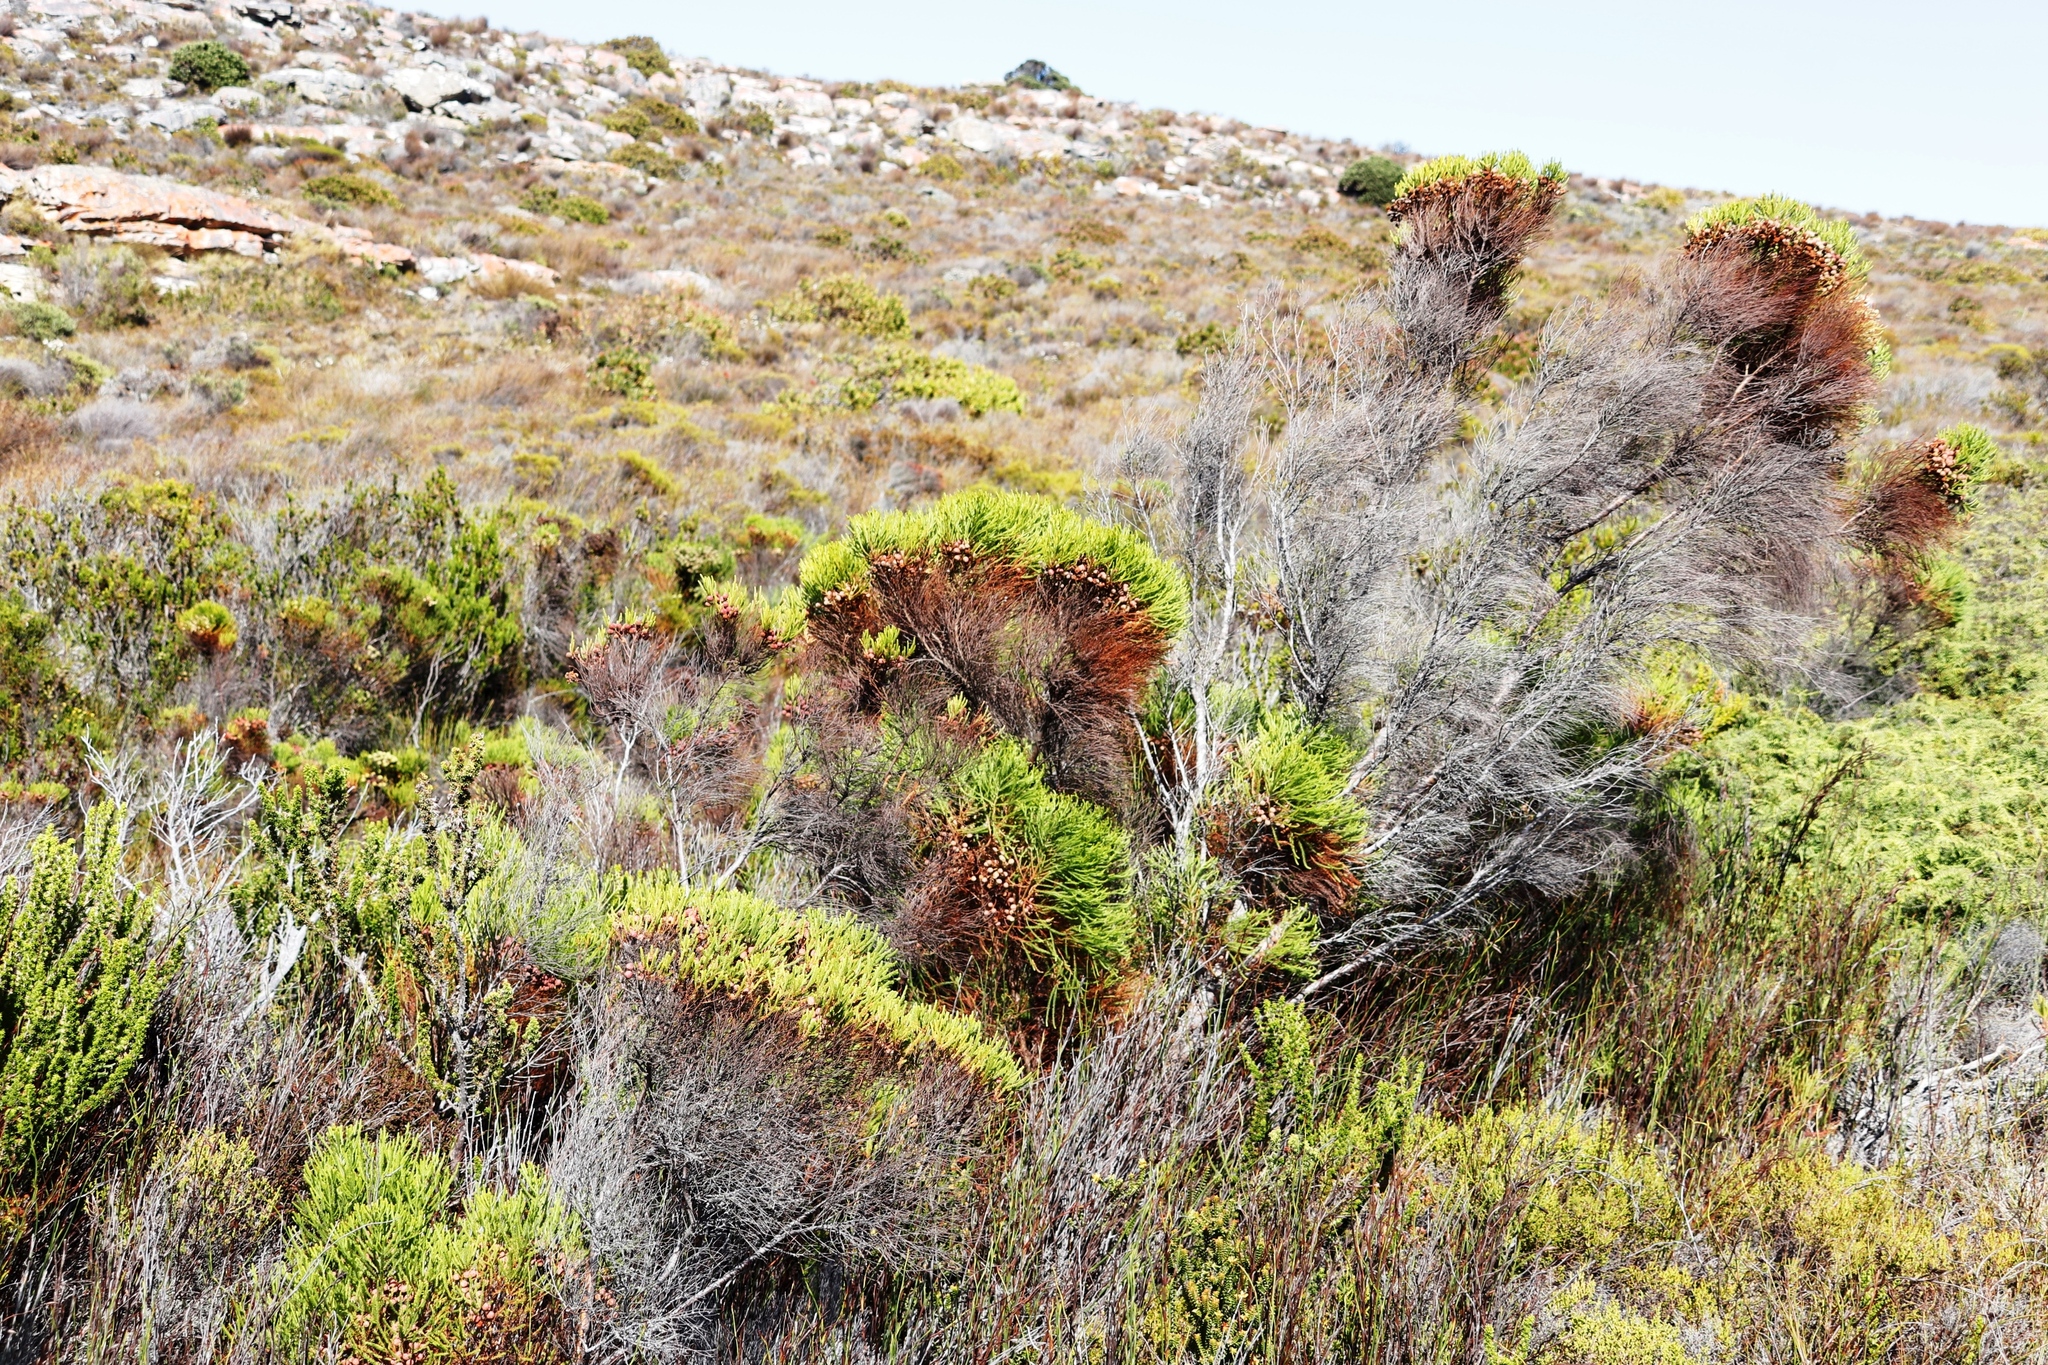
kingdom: Plantae
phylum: Tracheophyta
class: Magnoliopsida
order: Bruniales
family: Bruniaceae
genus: Berzelia
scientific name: Berzelia lanuginosa
